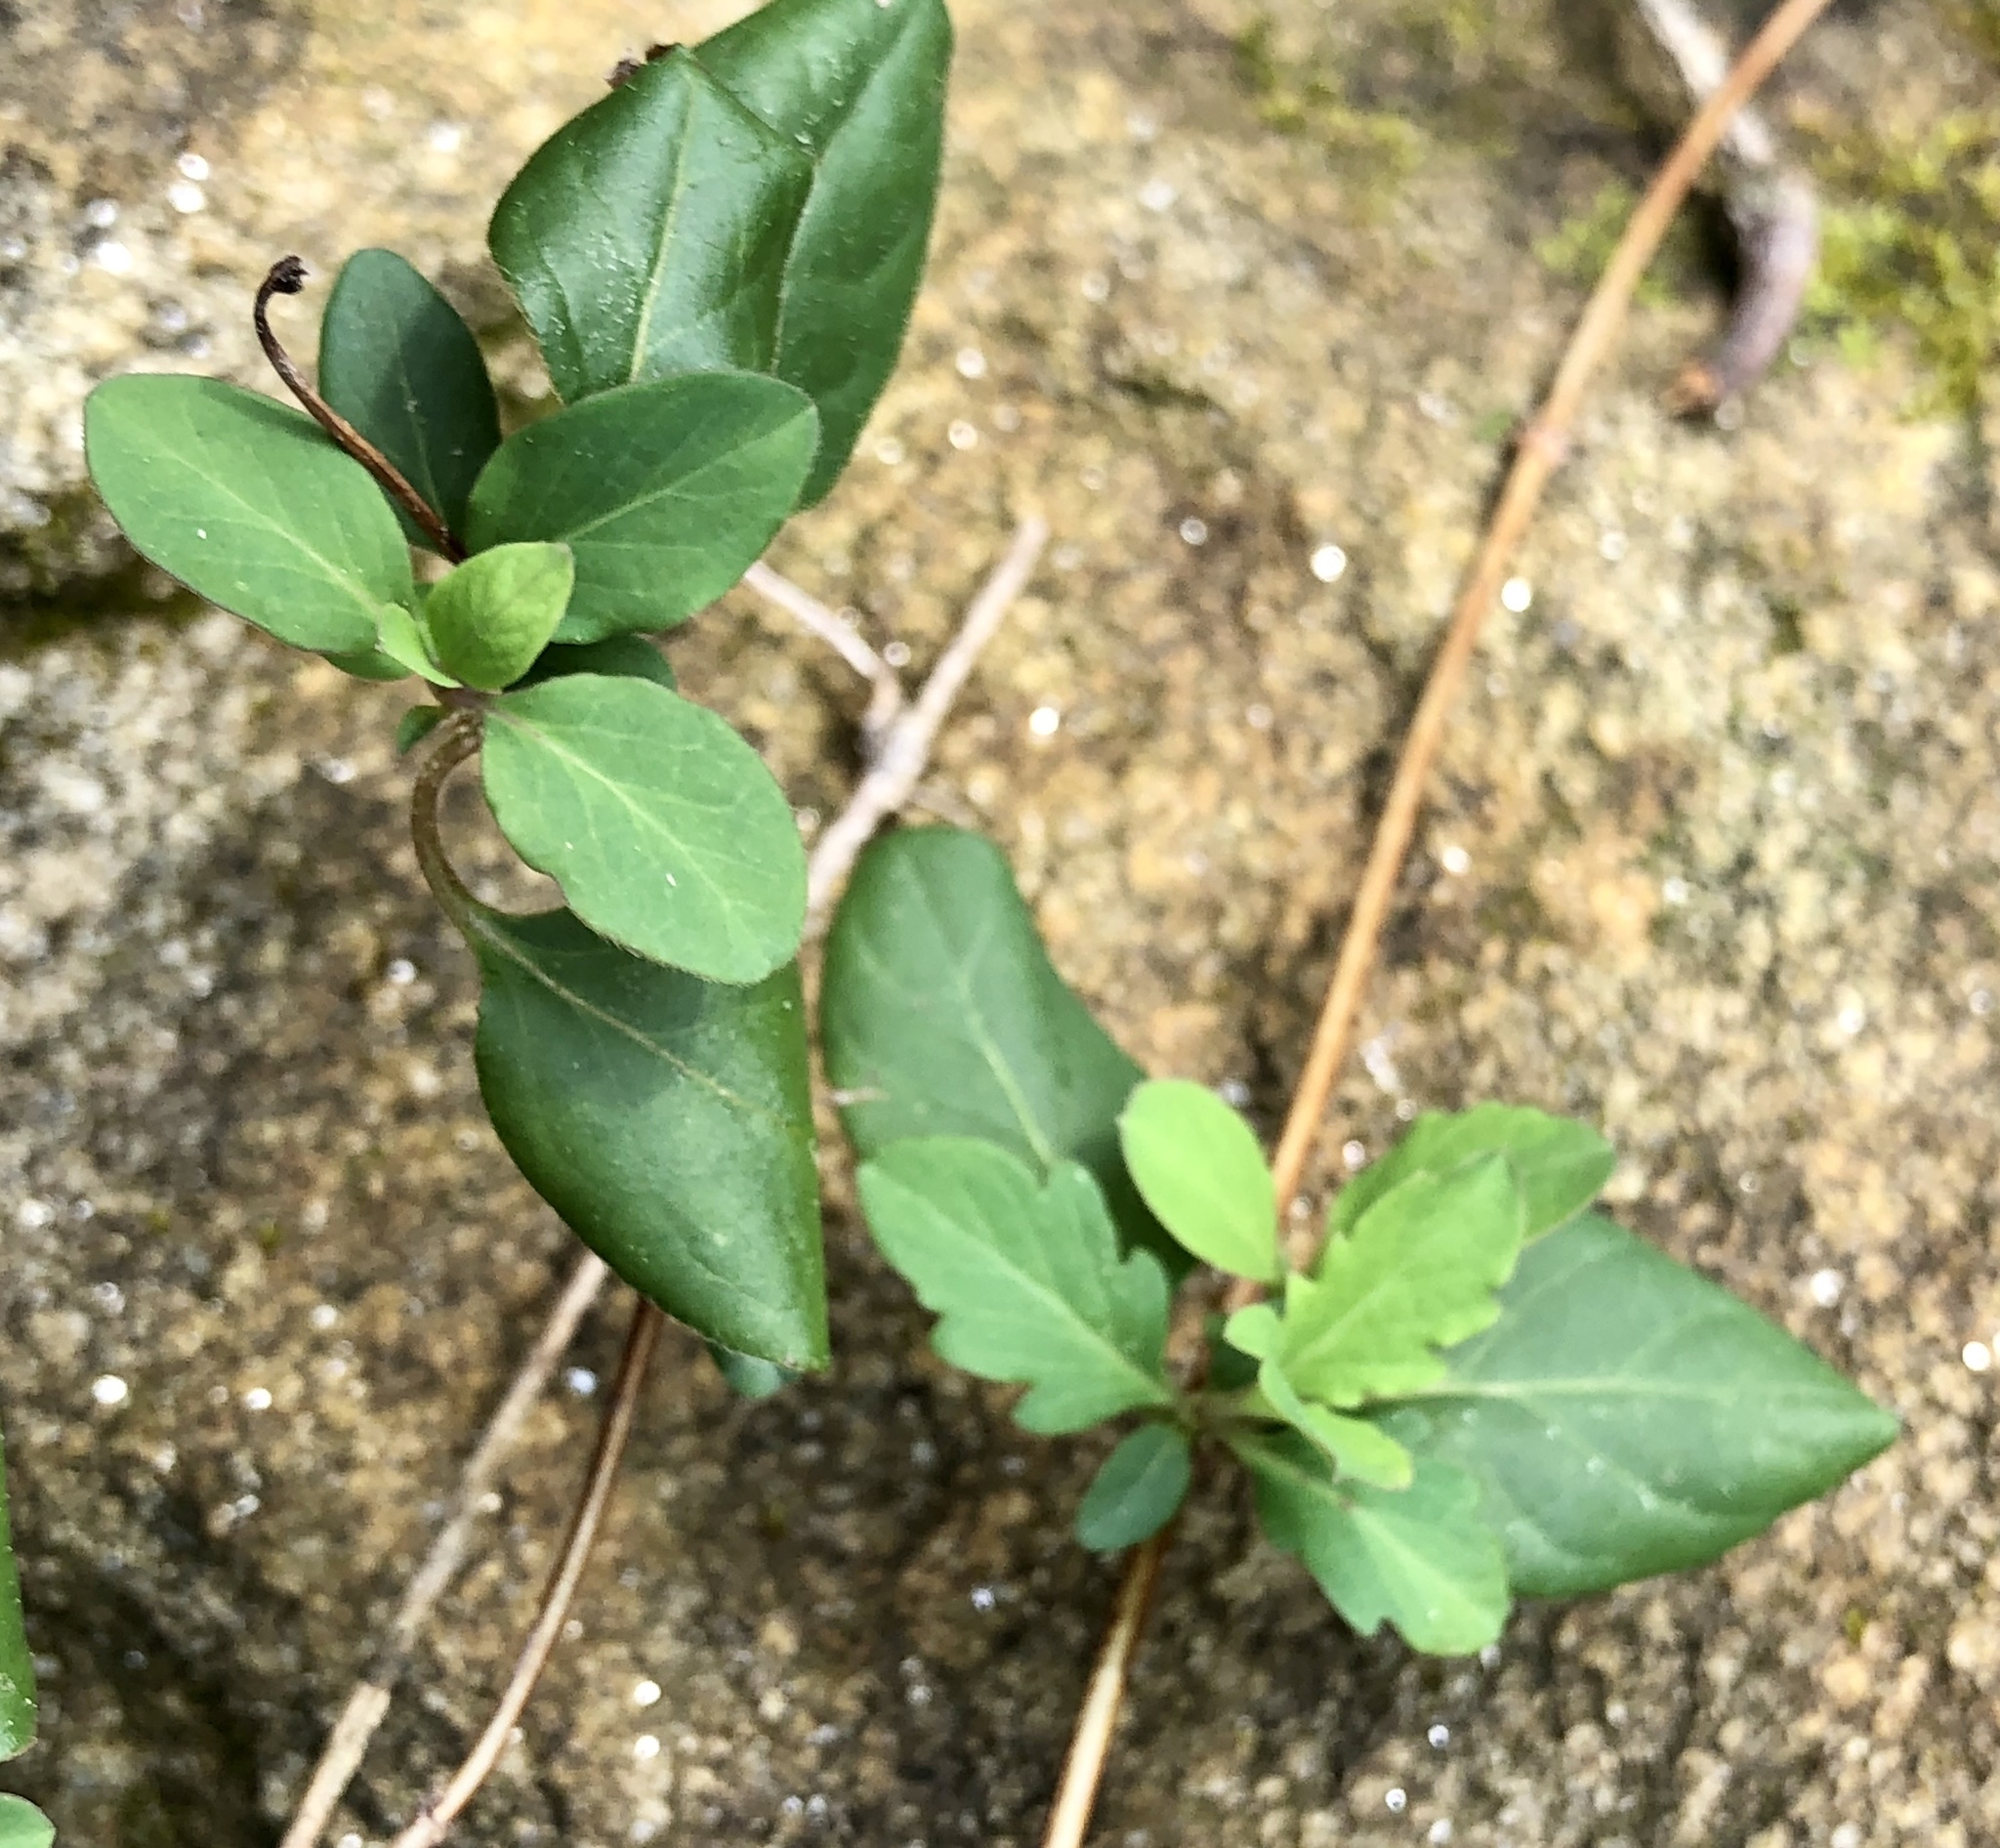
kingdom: Plantae
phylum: Tracheophyta
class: Magnoliopsida
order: Dipsacales
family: Caprifoliaceae
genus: Lonicera
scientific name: Lonicera japonica
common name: Japanese honeysuckle
